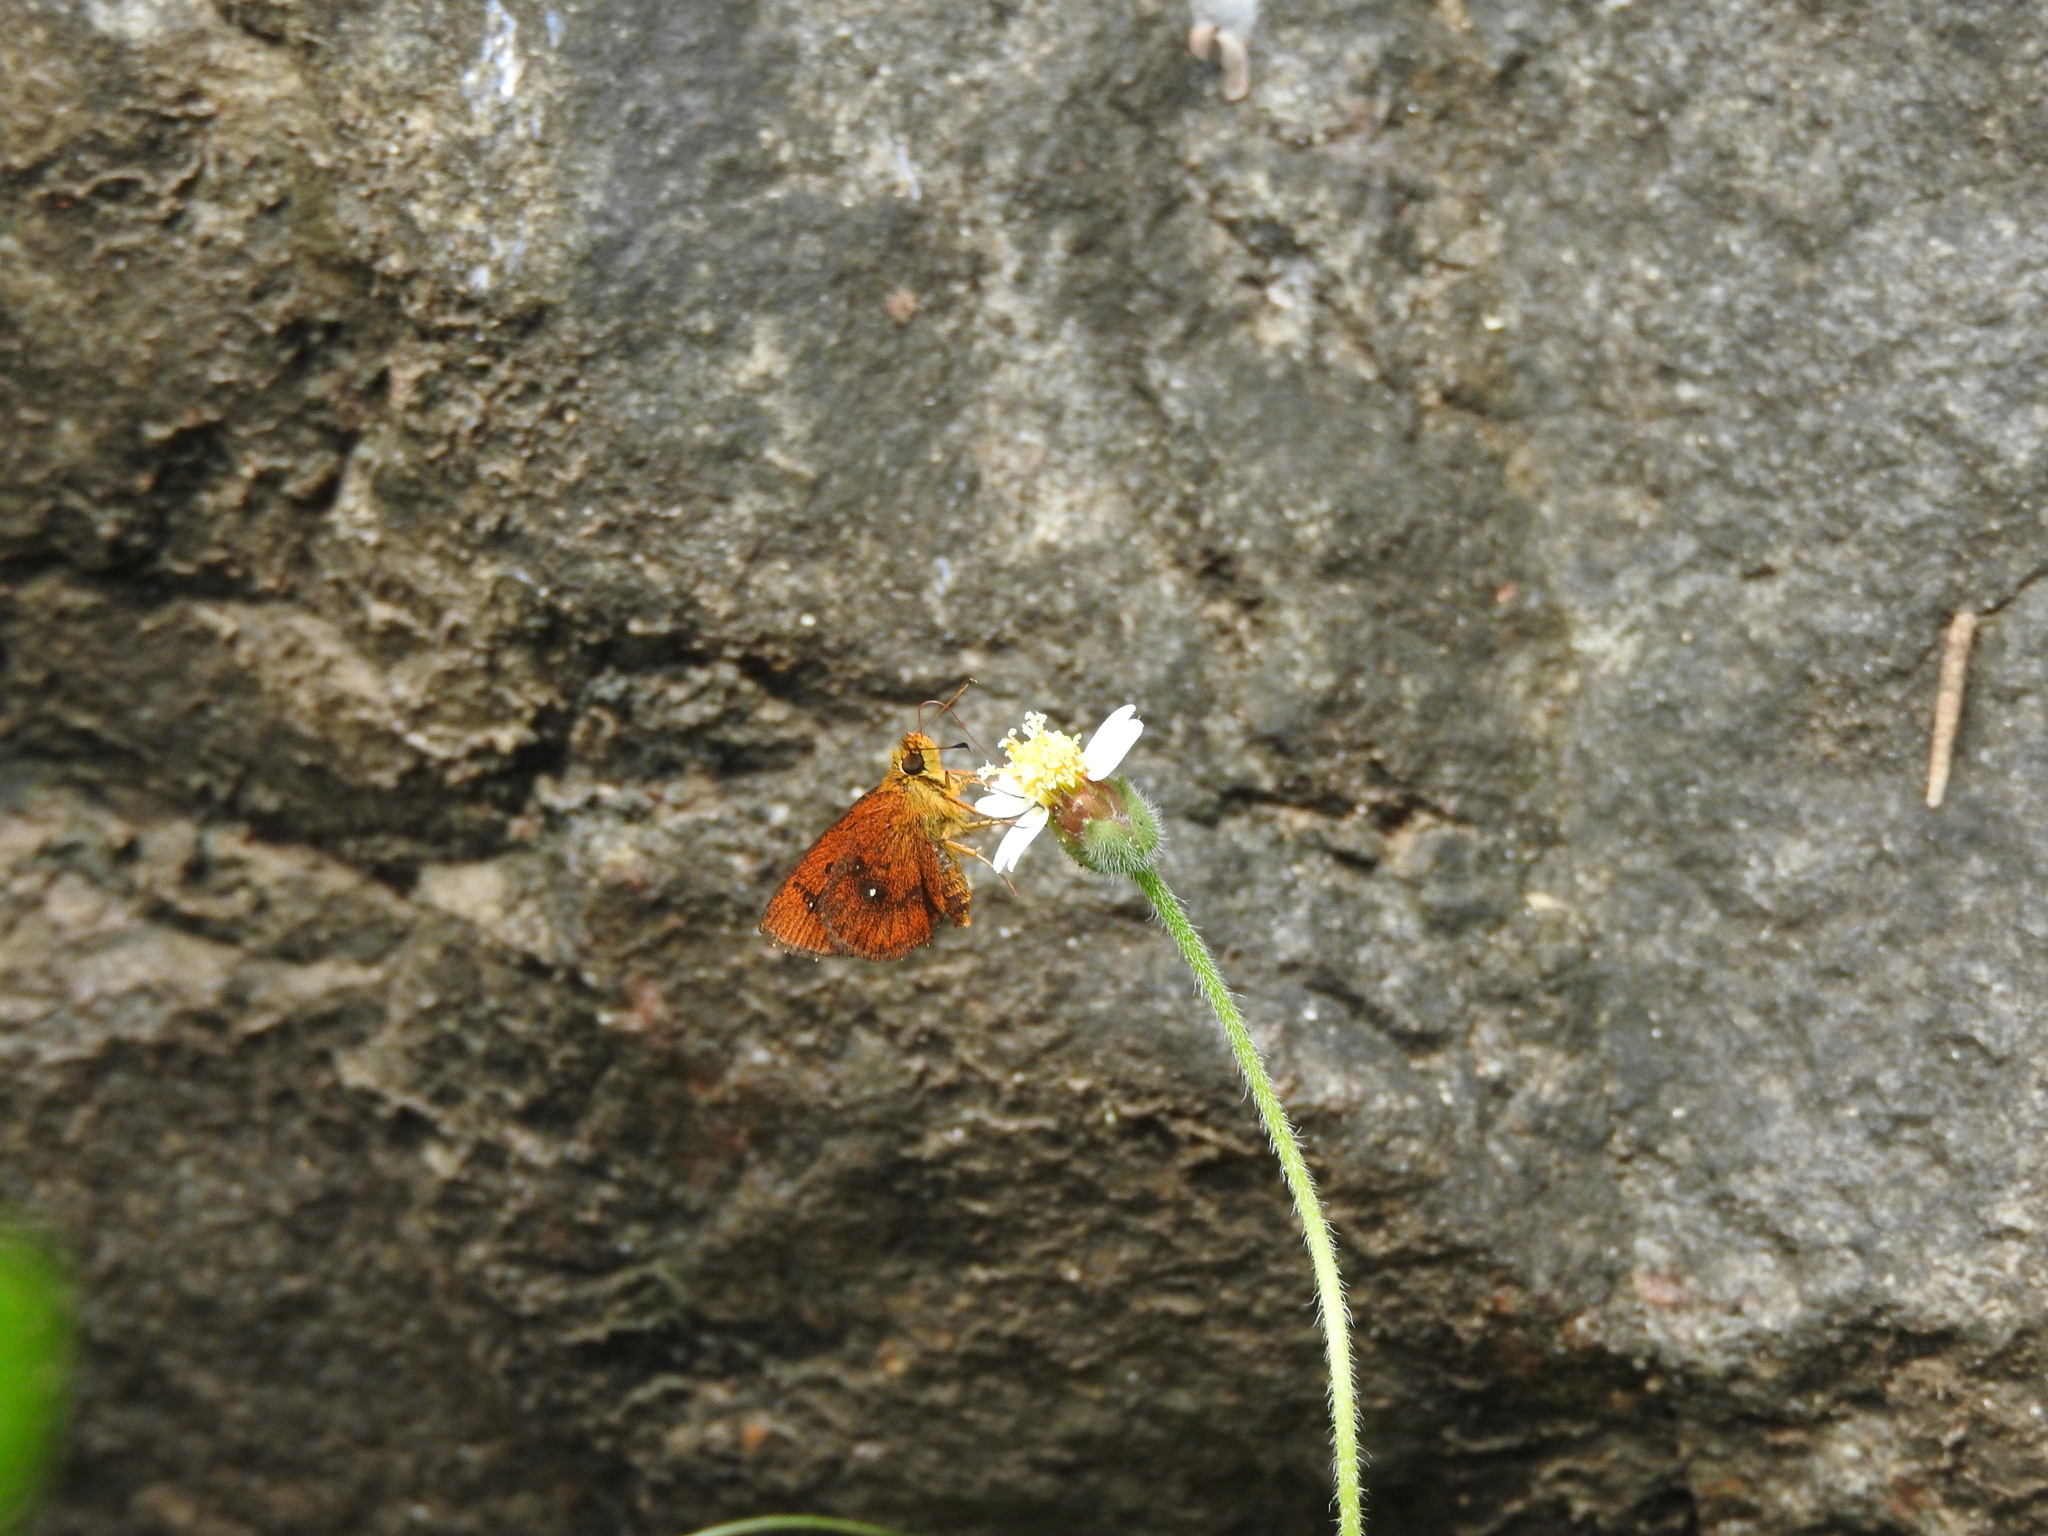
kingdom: Animalia
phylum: Arthropoda
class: Insecta
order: Lepidoptera
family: Hesperiidae
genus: Iambrix
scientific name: Iambrix salsala
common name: Chestnut bob
